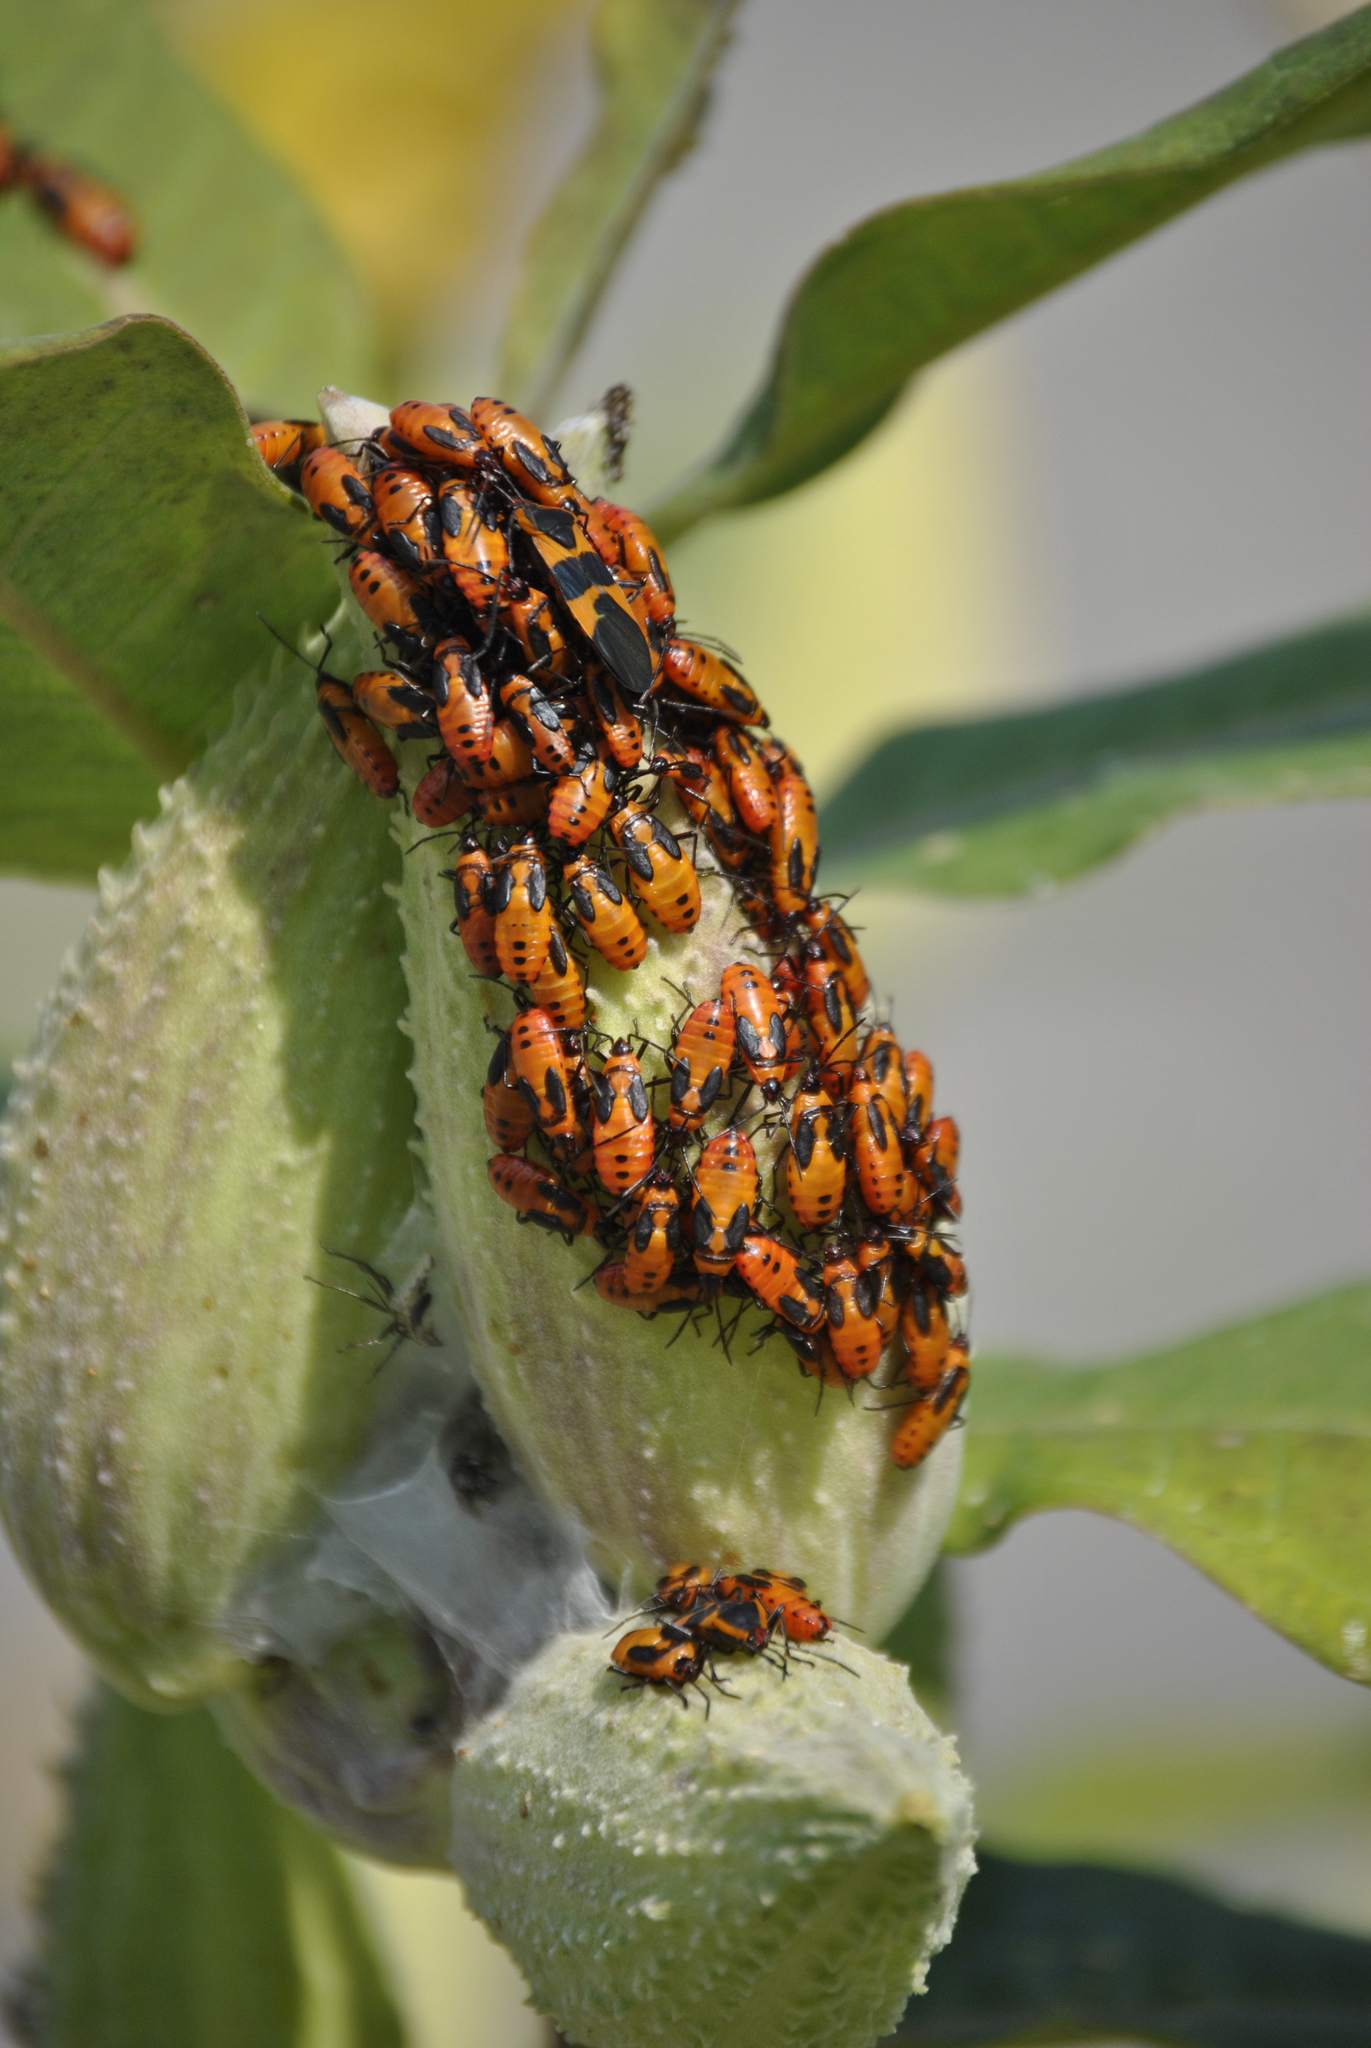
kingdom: Animalia
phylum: Arthropoda
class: Insecta
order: Hemiptera
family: Lygaeidae
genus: Oncopeltus
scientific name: Oncopeltus fasciatus
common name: Large milkweed bug
